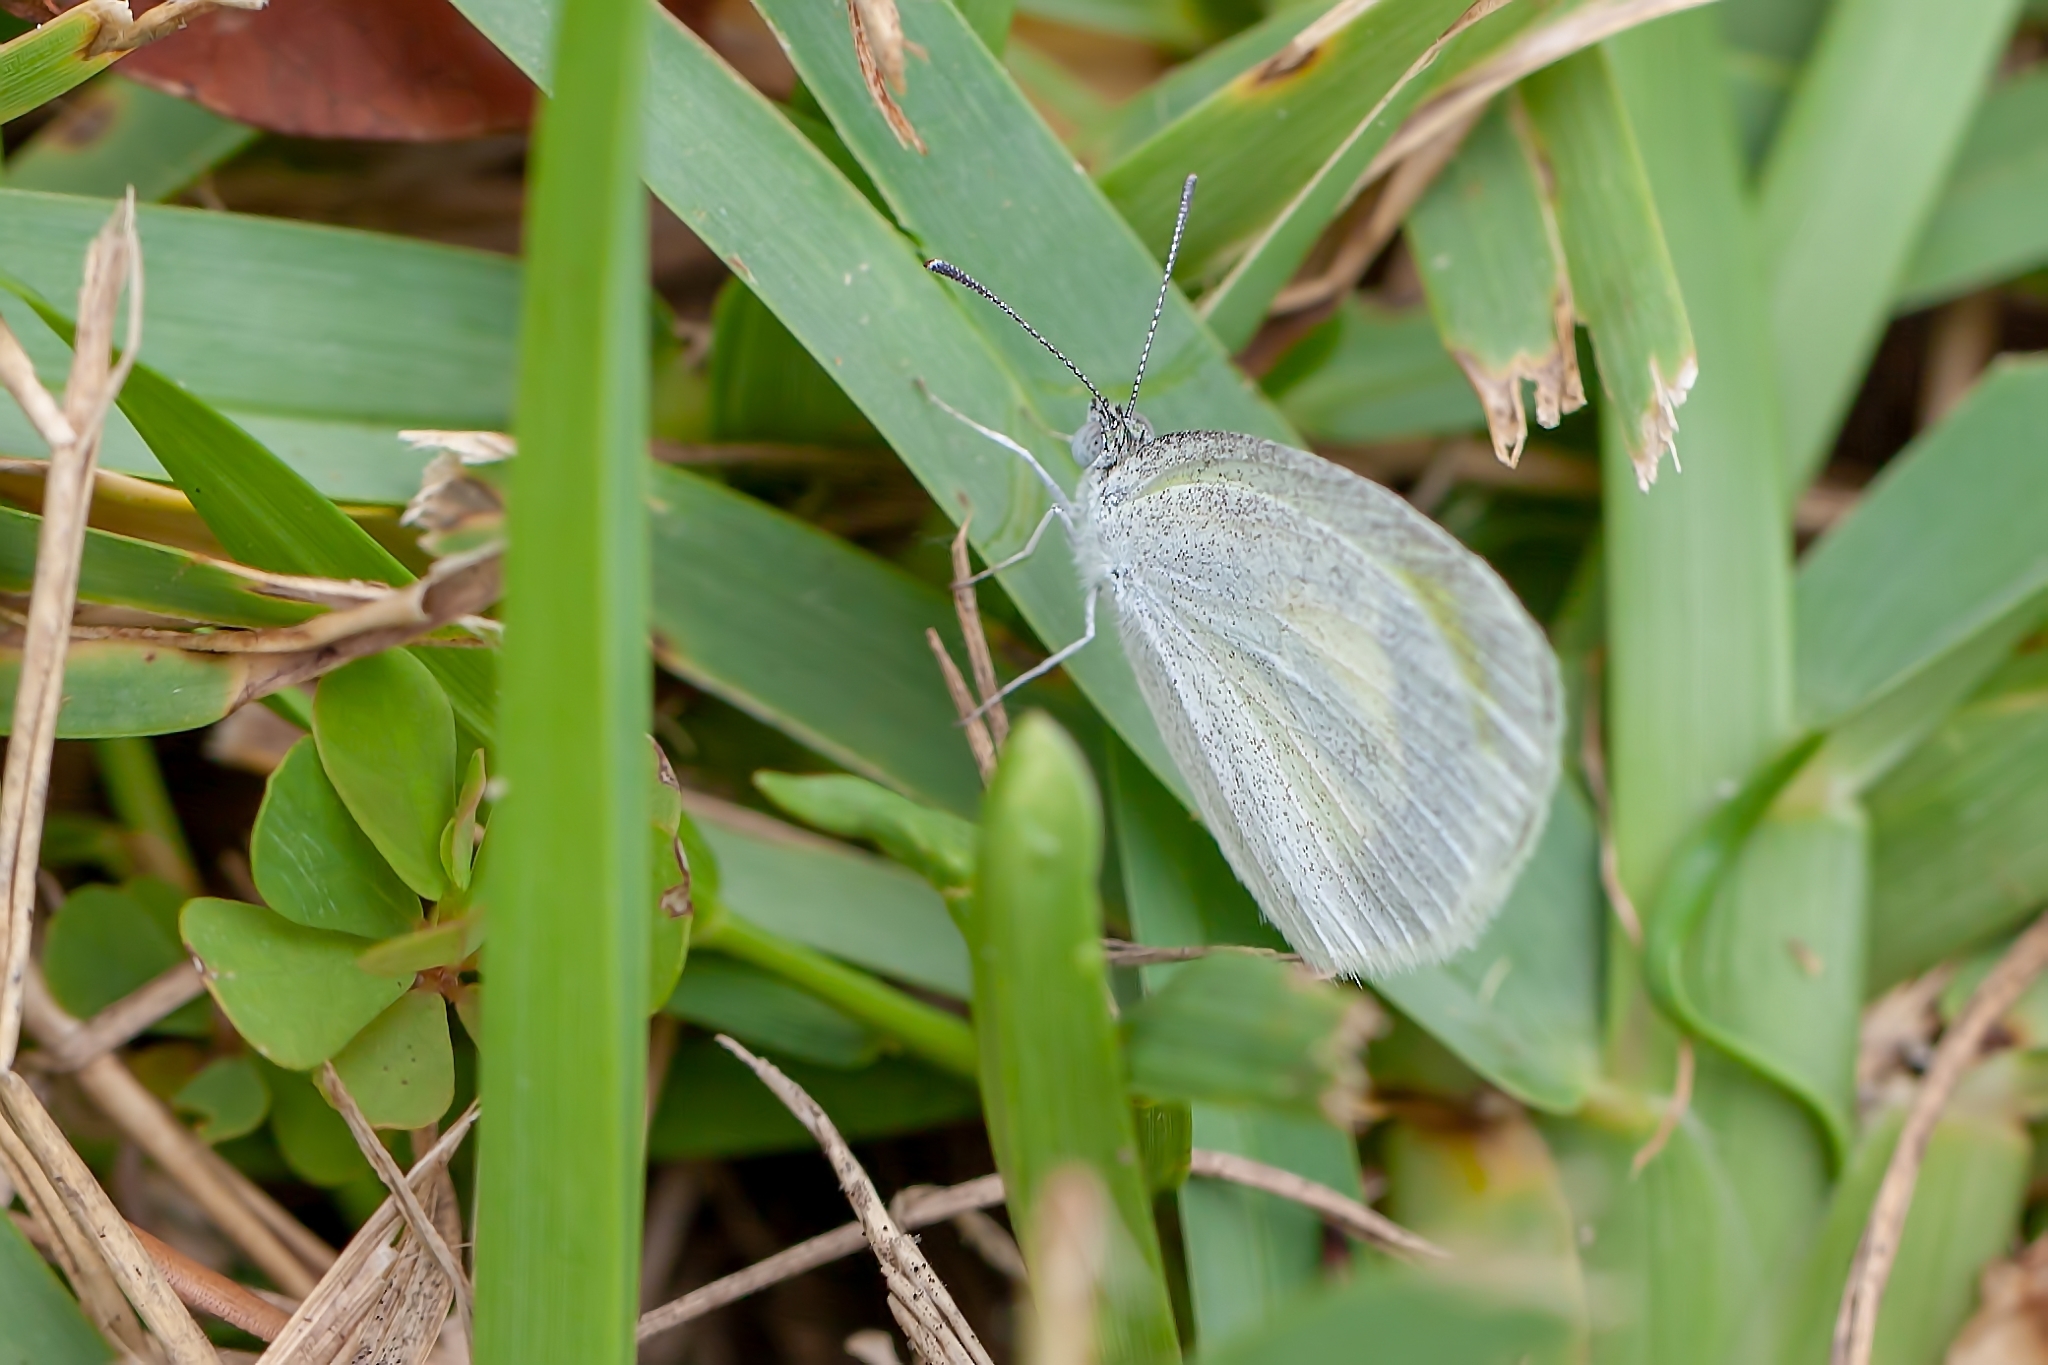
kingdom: Animalia
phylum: Arthropoda
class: Insecta
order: Lepidoptera
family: Pieridae
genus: Eurema
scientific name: Eurema daira
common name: Barred sulphur
